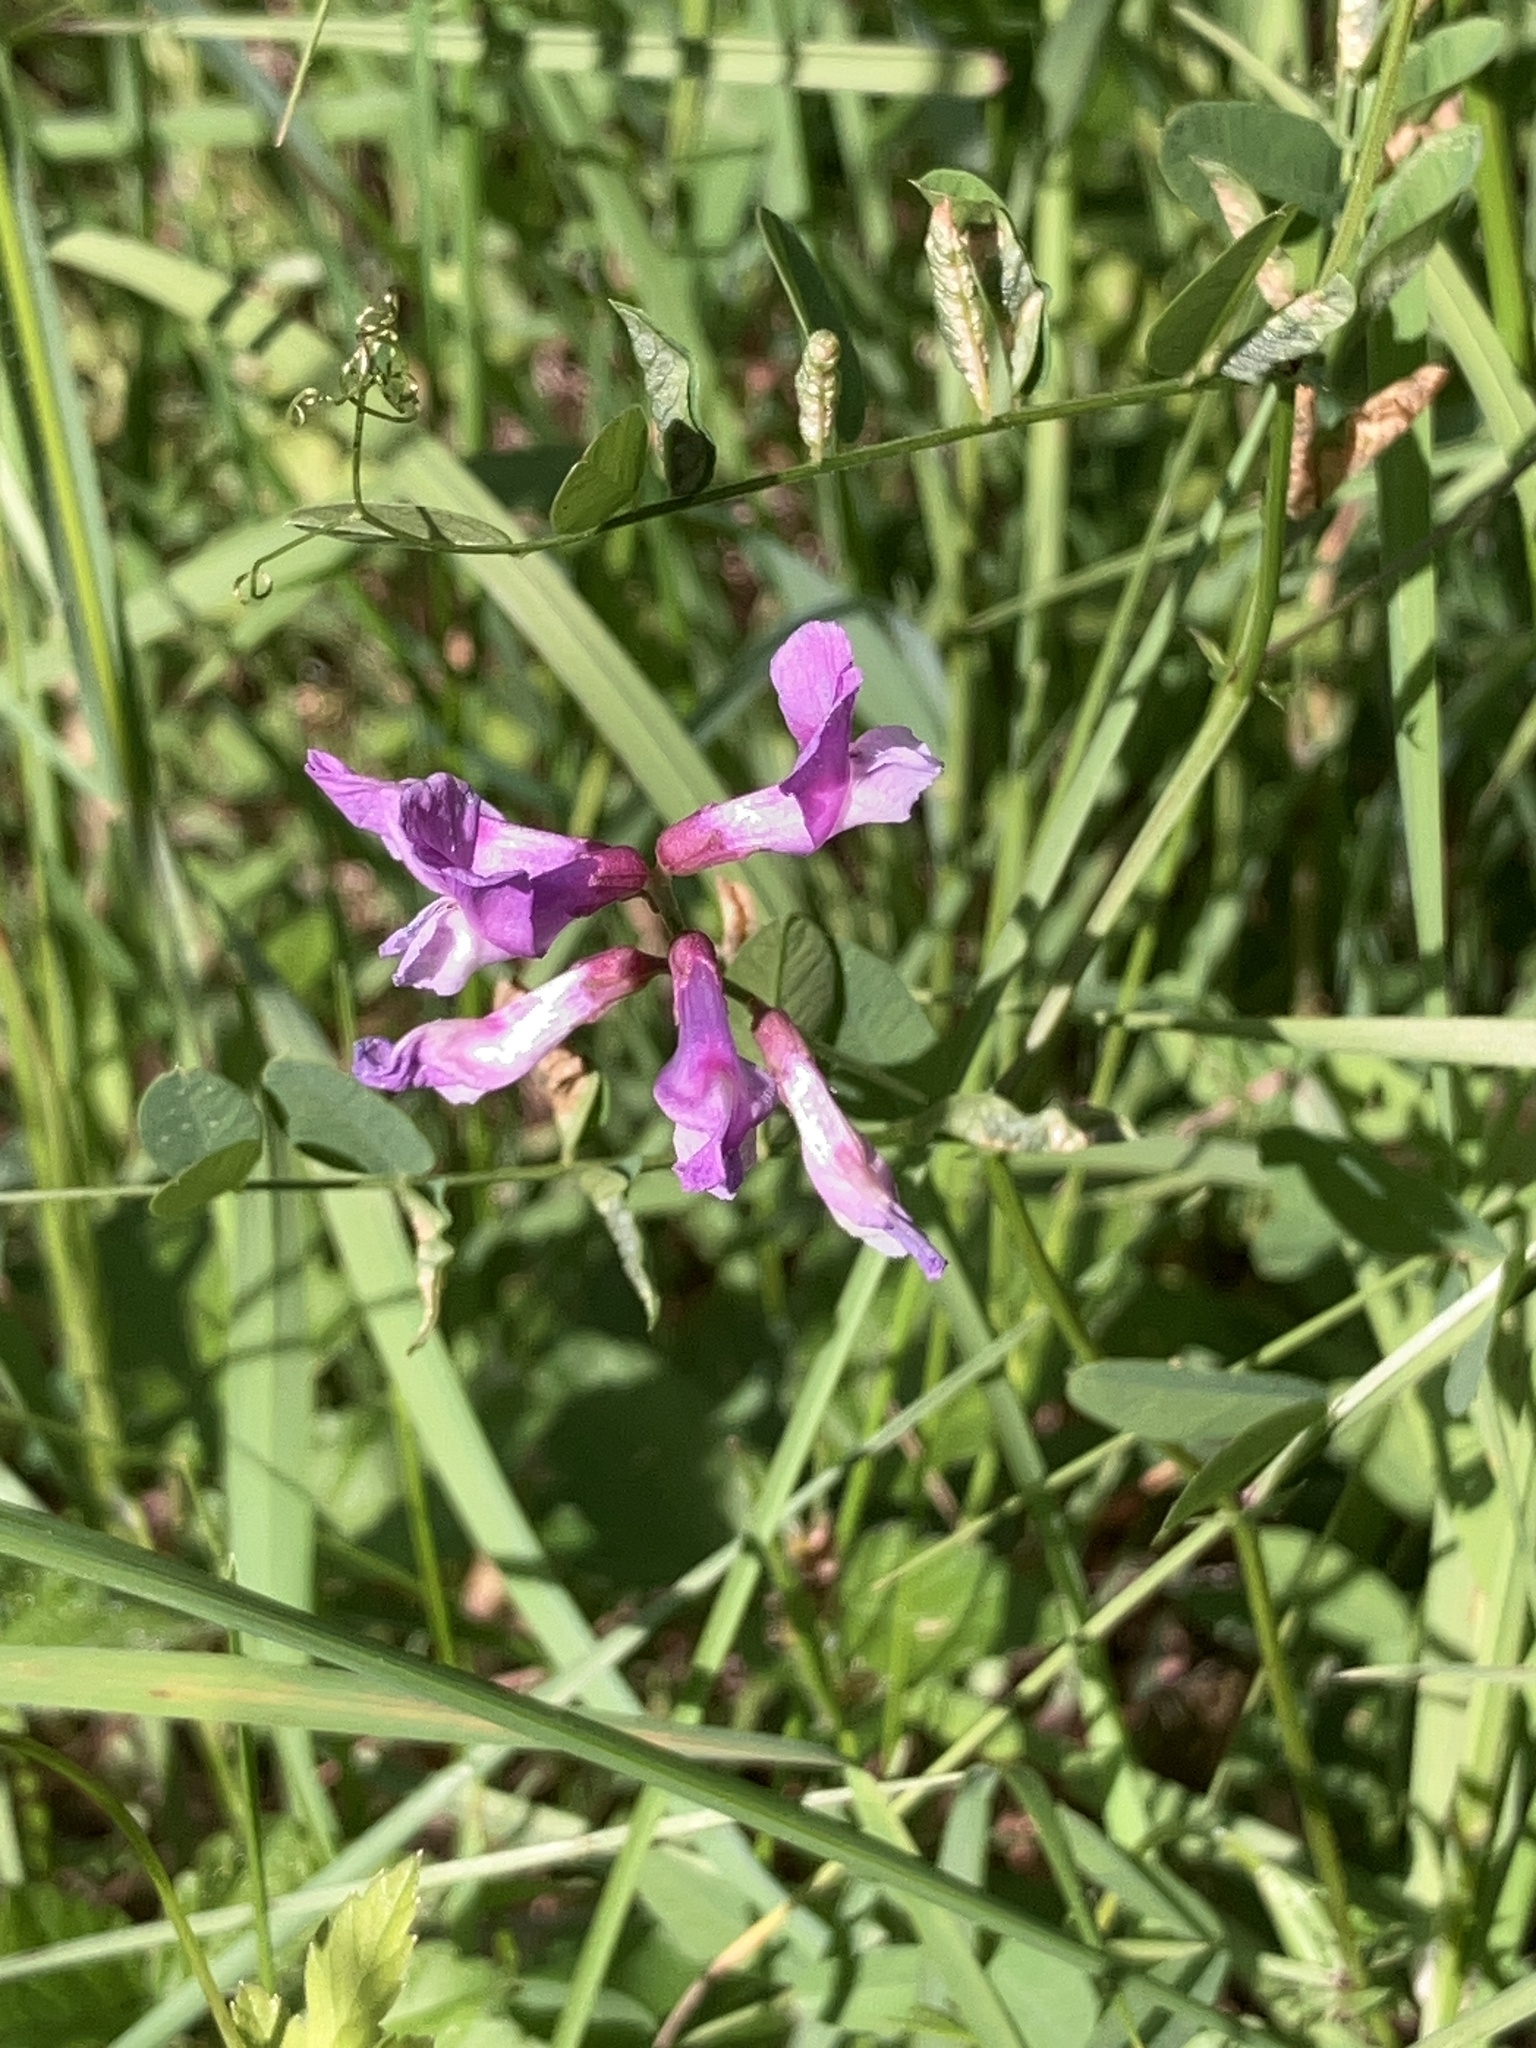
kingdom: Plantae
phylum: Tracheophyta
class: Magnoliopsida
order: Fabales
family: Fabaceae
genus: Vicia
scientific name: Vicia americana
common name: American vetch
